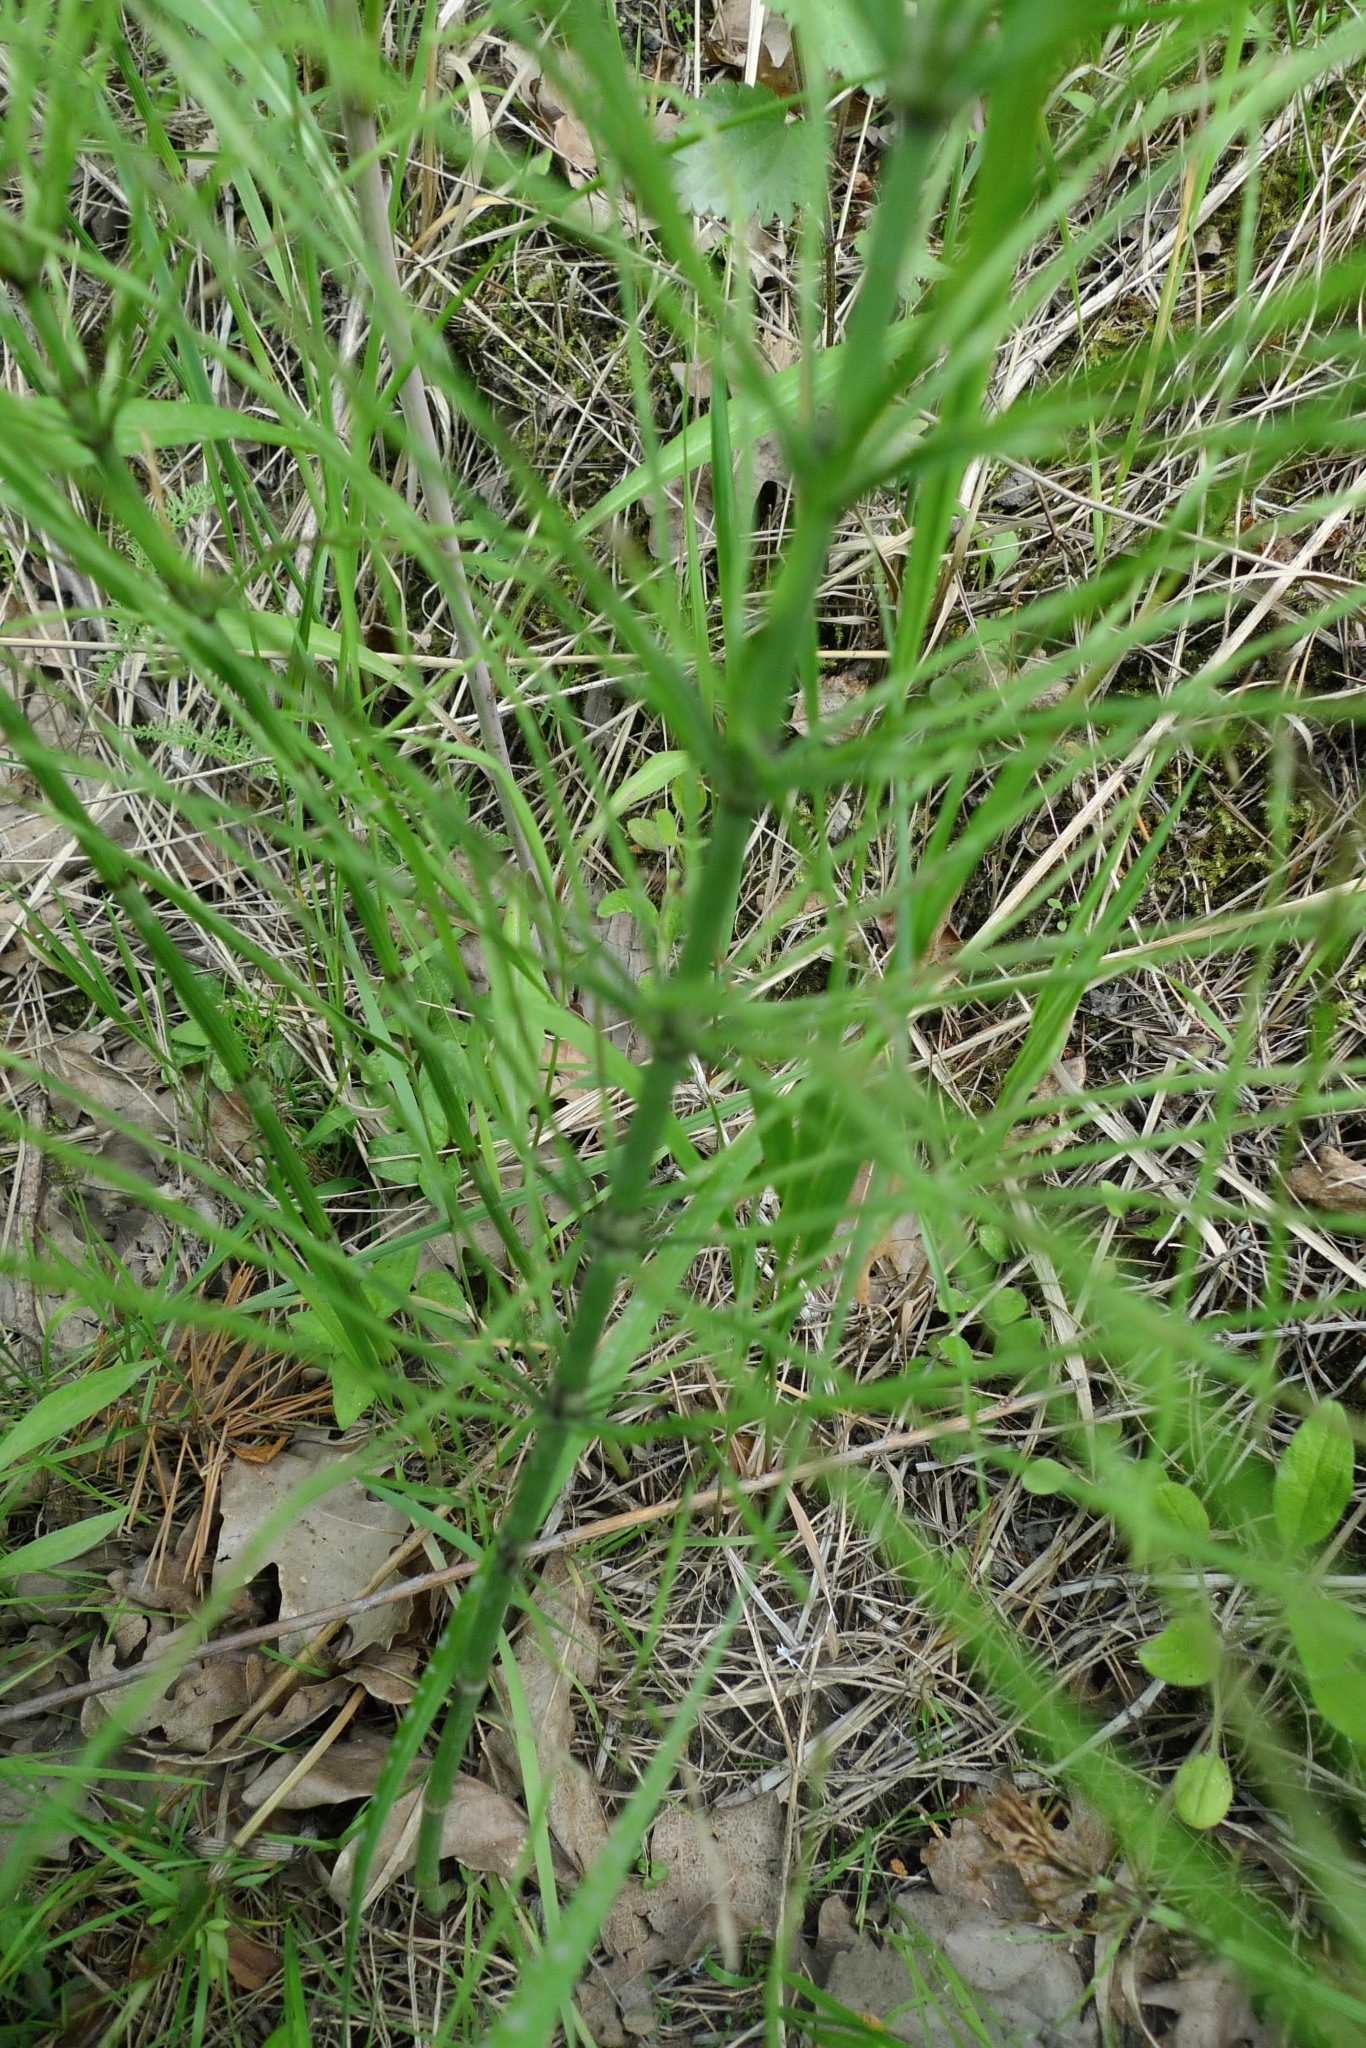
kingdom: Plantae
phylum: Tracheophyta
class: Polypodiopsida
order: Equisetales
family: Equisetaceae
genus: Equisetum
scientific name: Equisetum arvense
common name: Field horsetail
